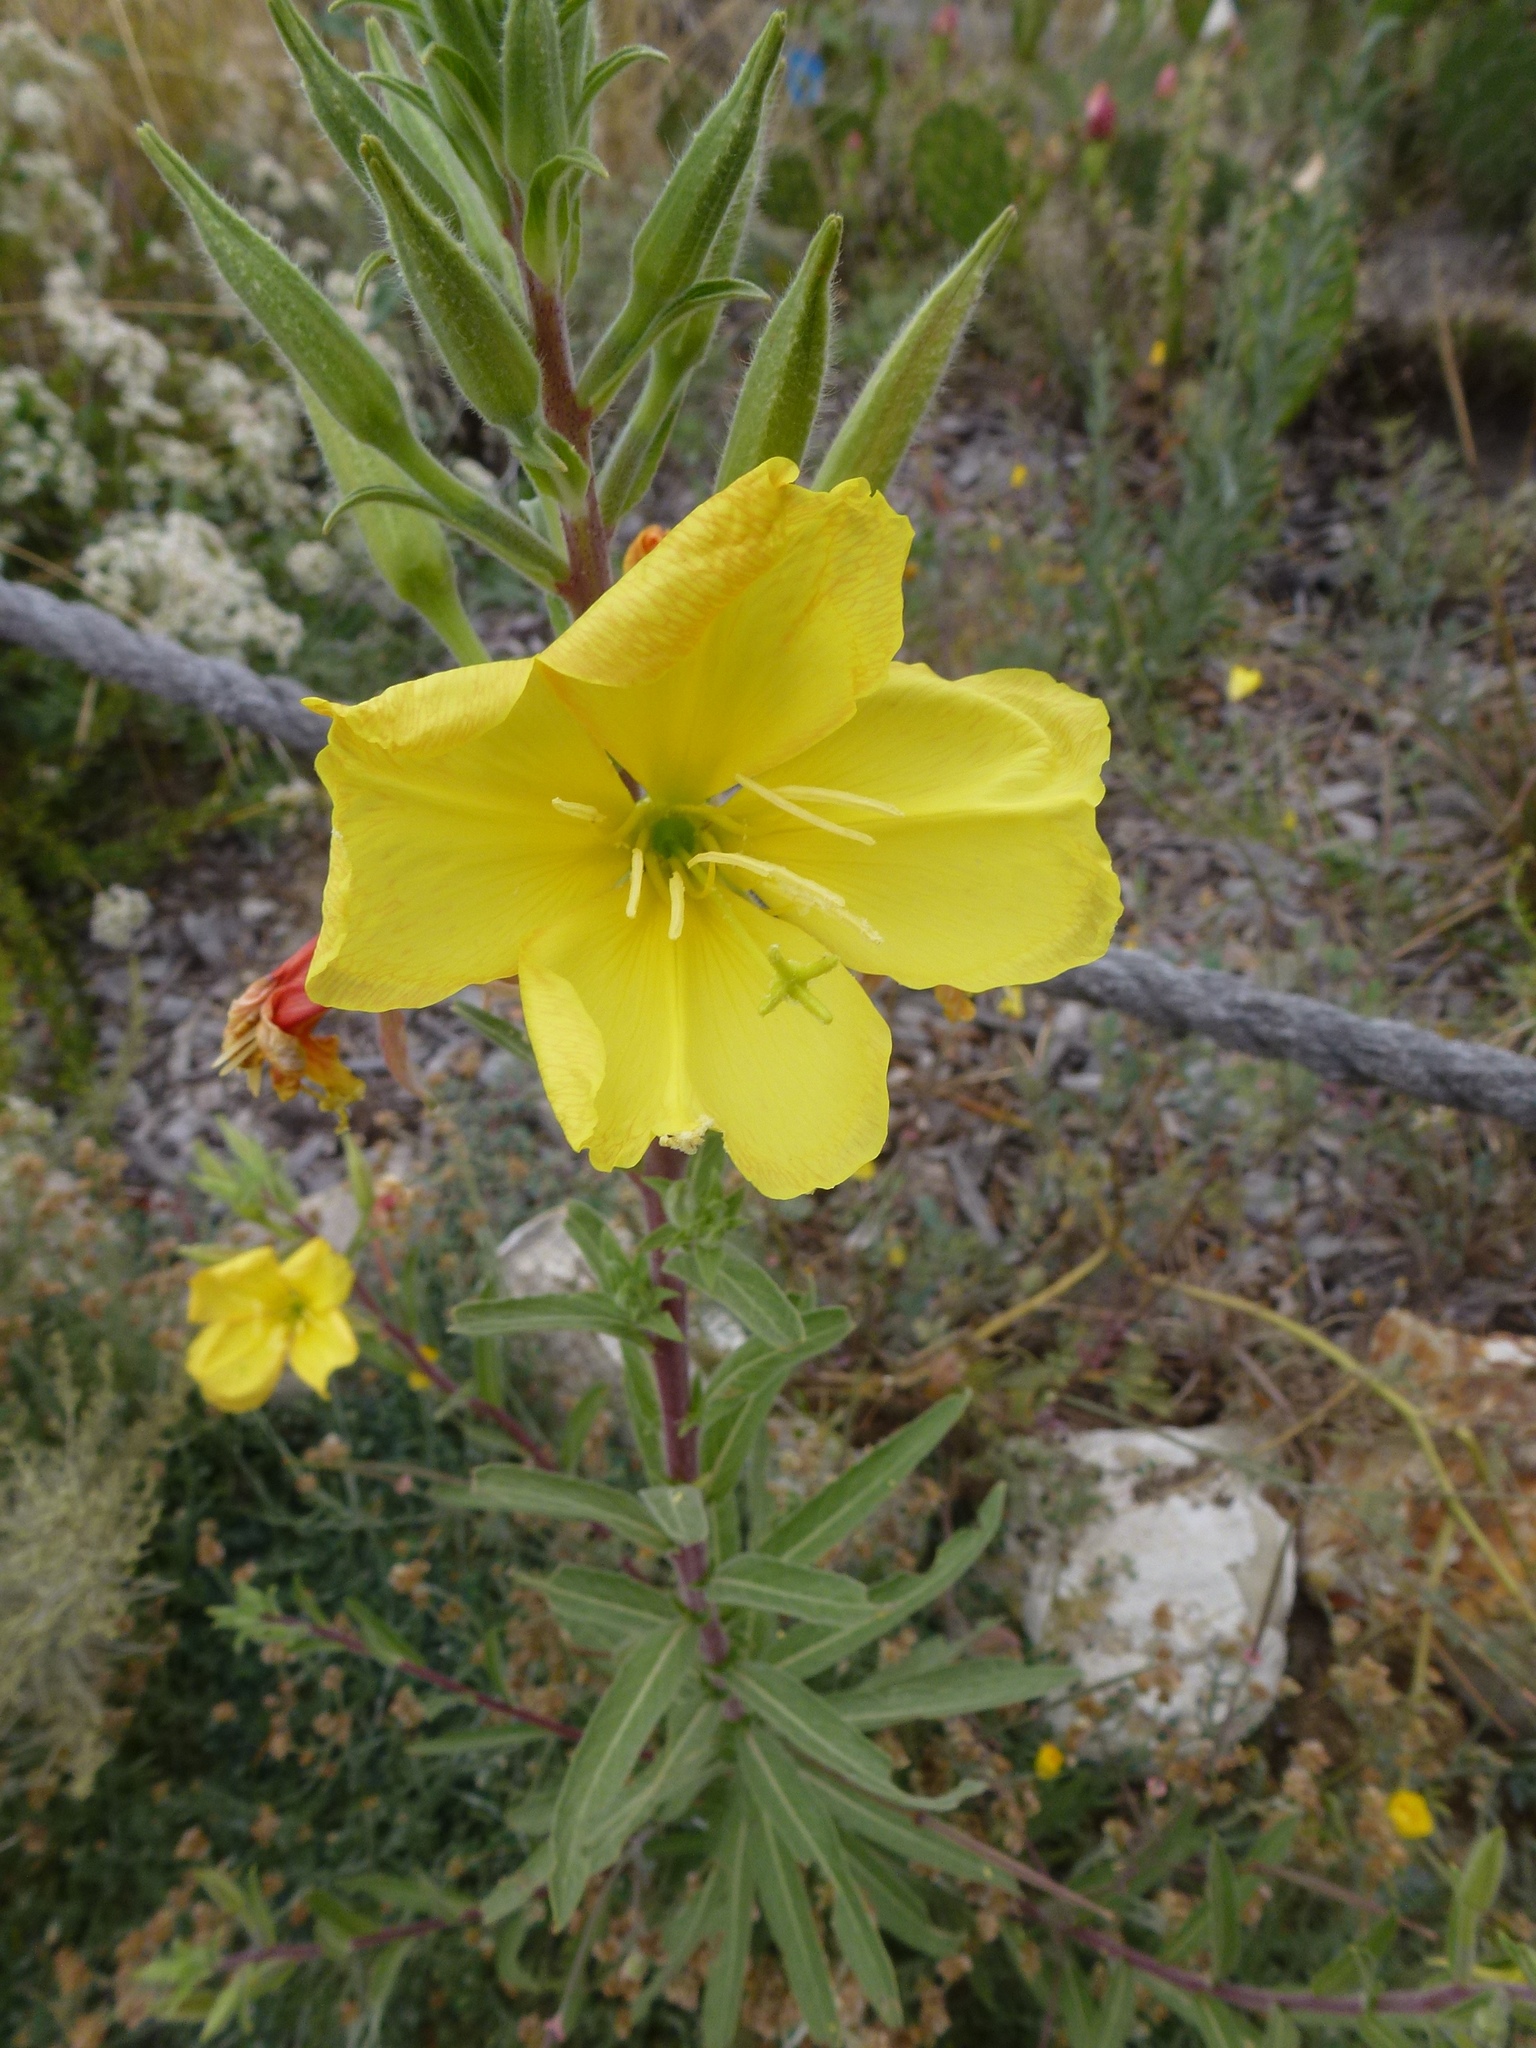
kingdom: Plantae
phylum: Tracheophyta
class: Magnoliopsida
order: Myrtales
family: Onagraceae
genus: Oenothera
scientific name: Oenothera elata
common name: Hooker's evening-primrose
